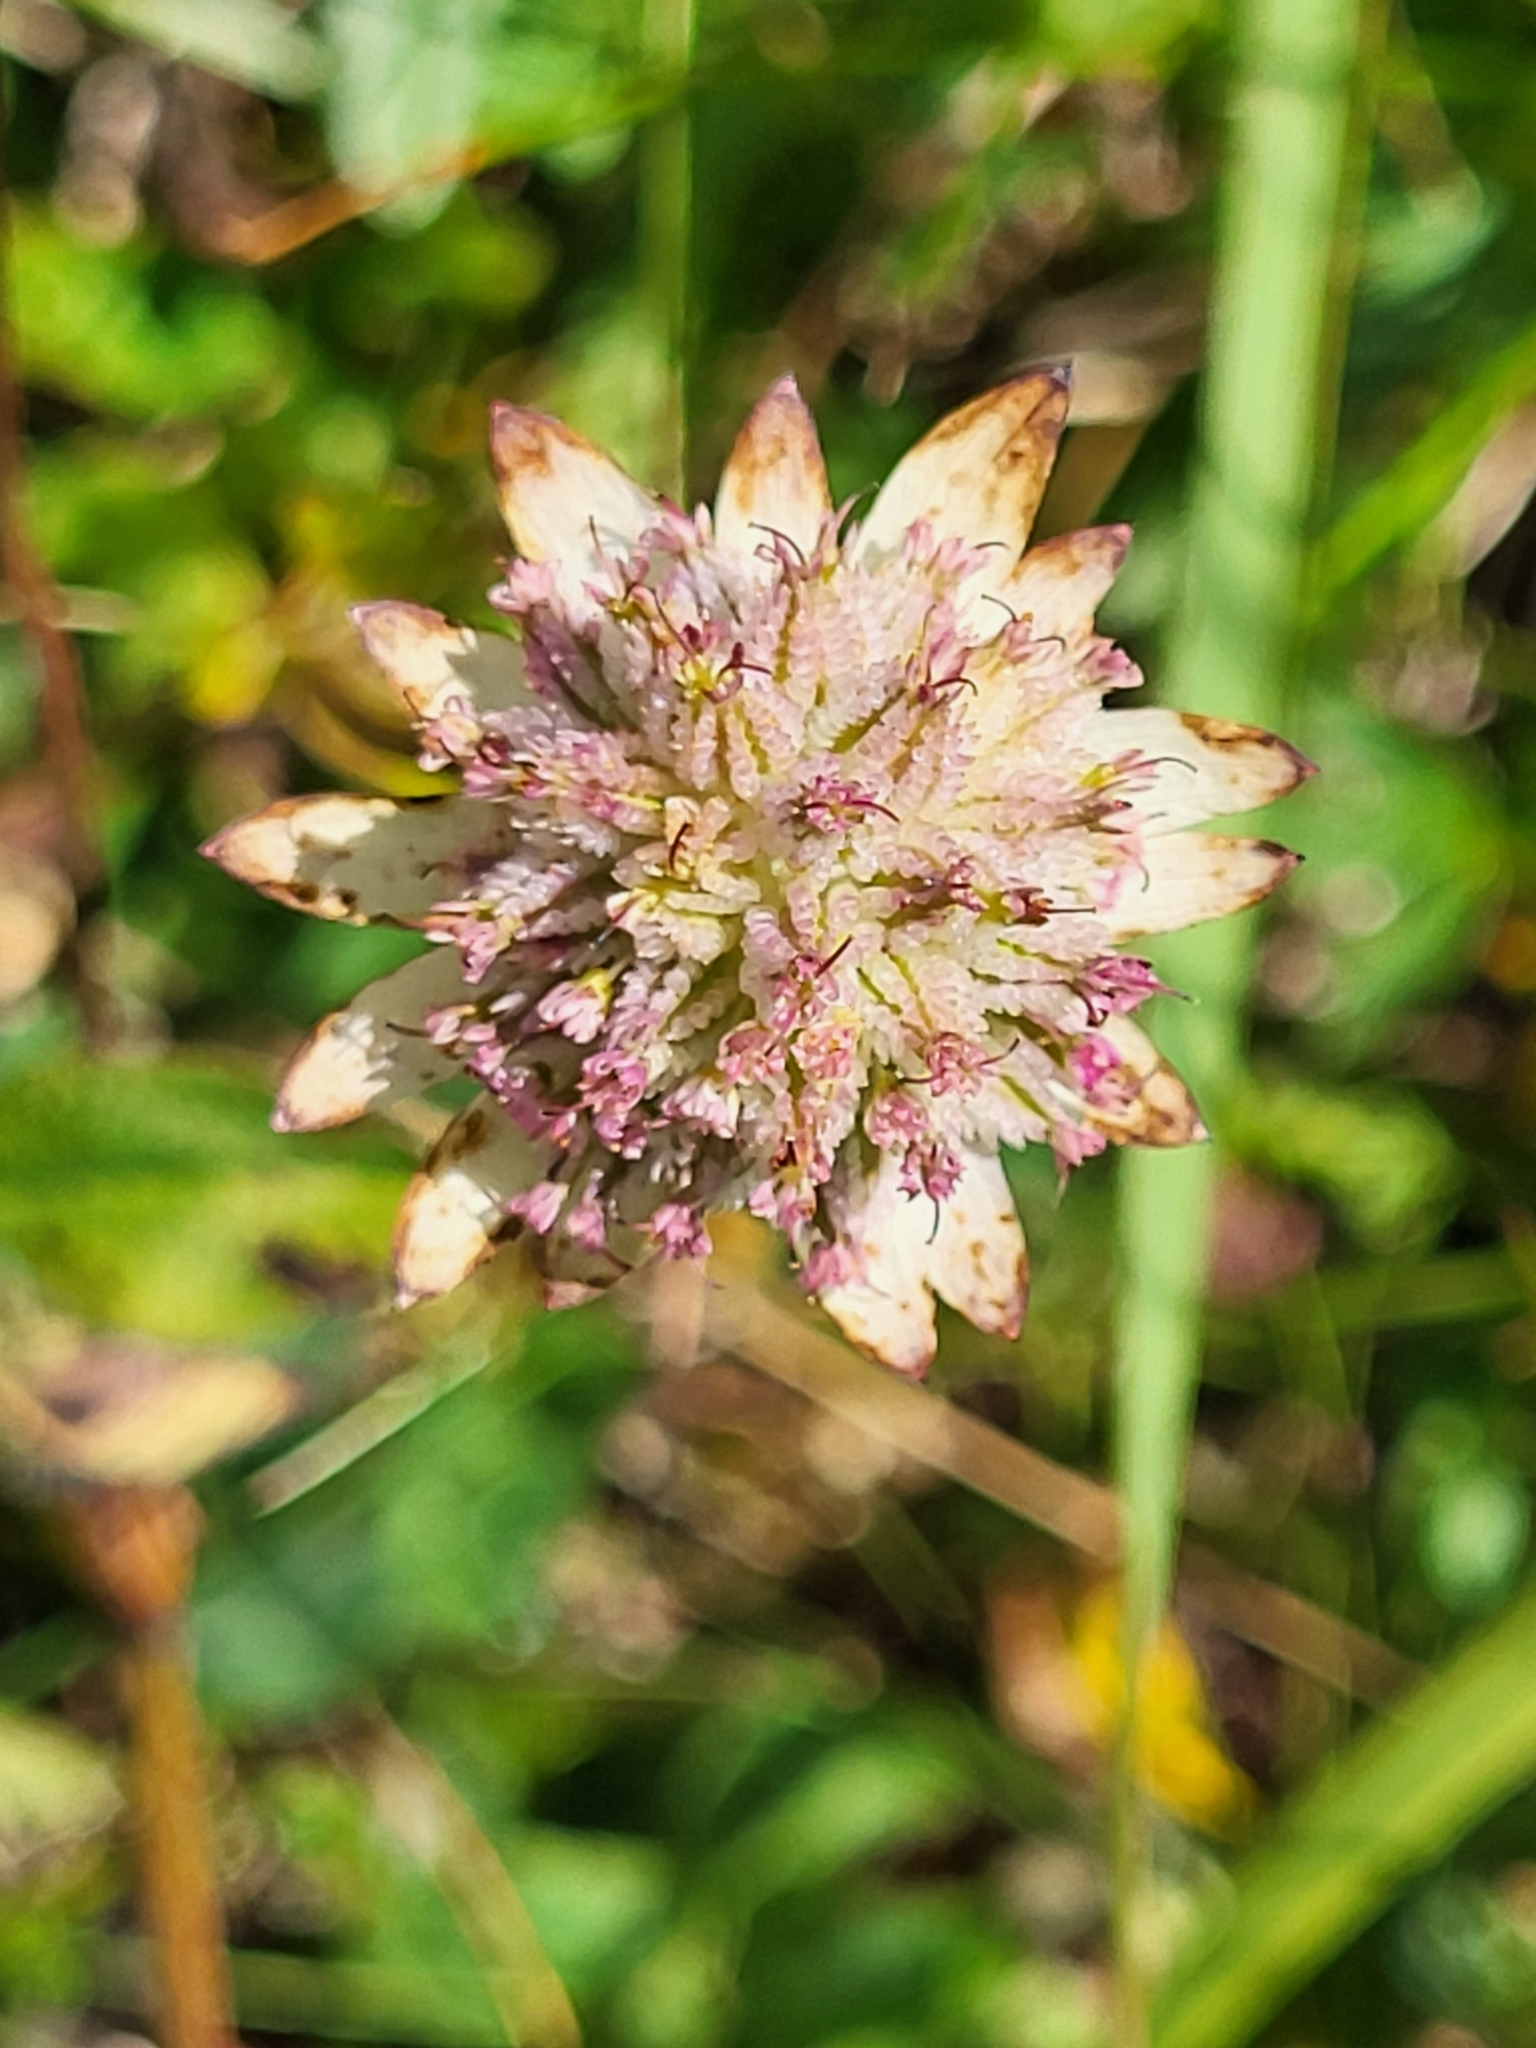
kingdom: Plantae
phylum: Tracheophyta
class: Magnoliopsida
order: Apiales
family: Apiaceae
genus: Astrantia
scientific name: Astrantia bavarica
